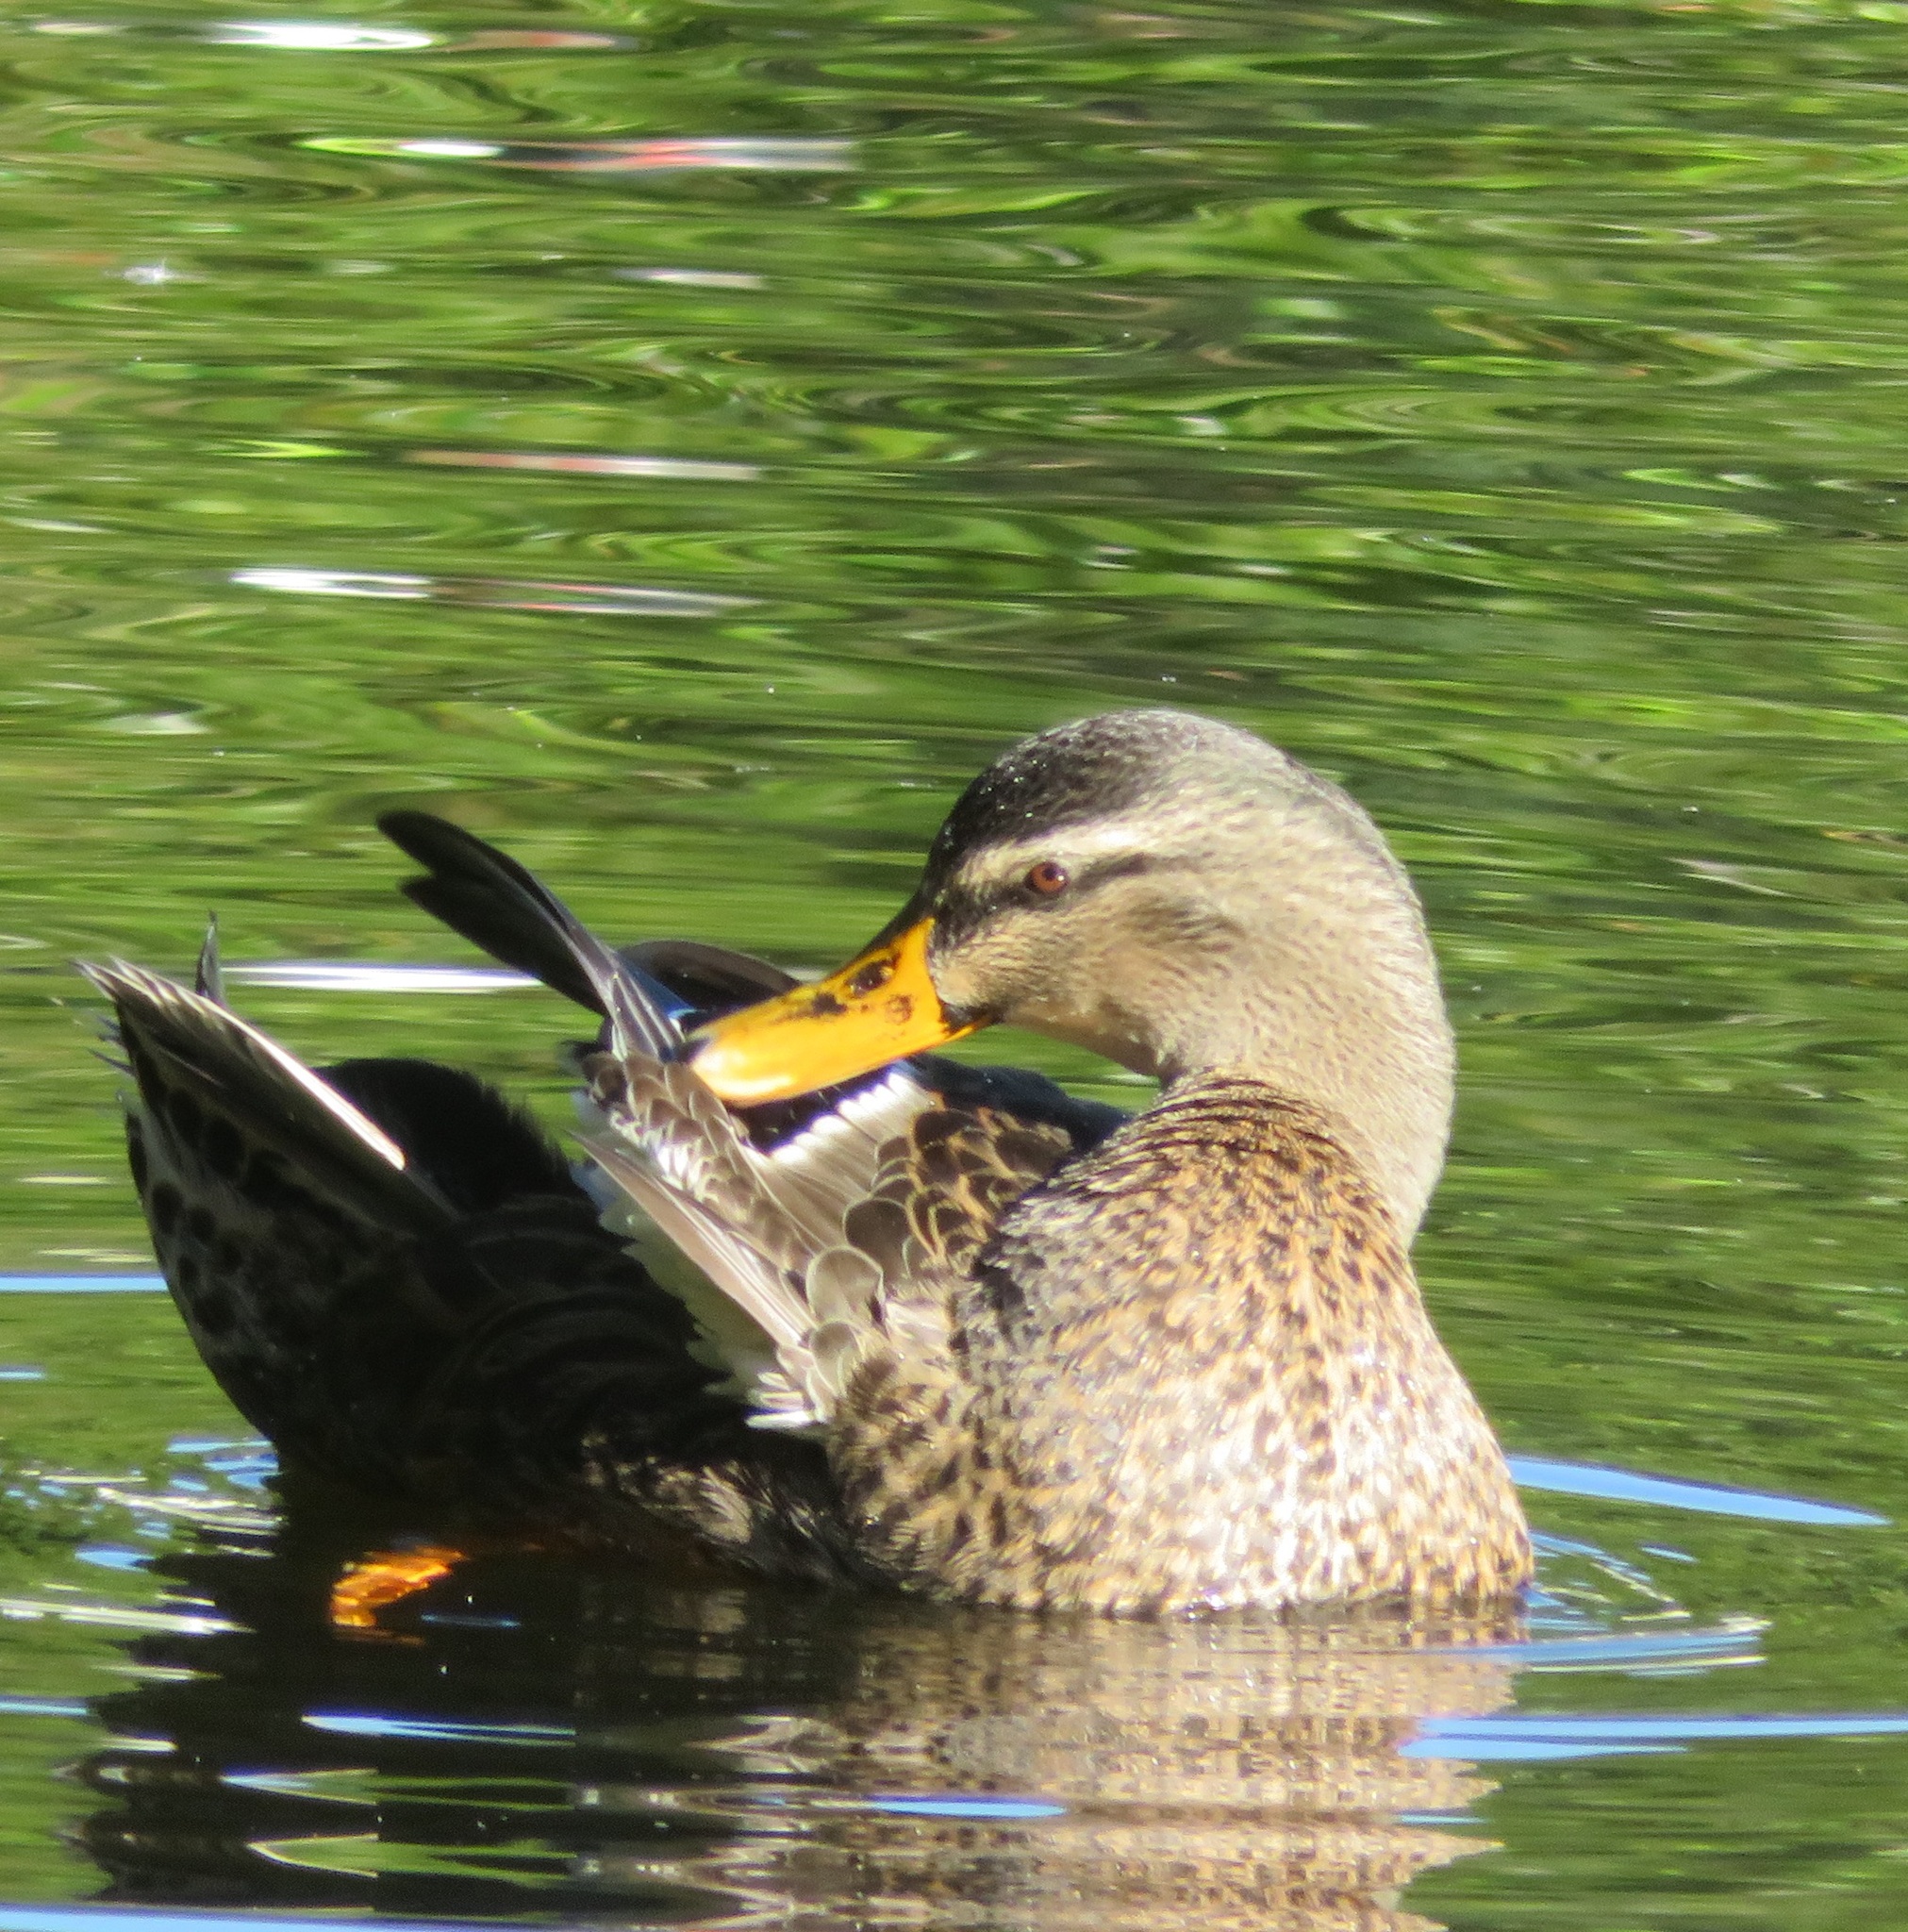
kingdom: Animalia
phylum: Chordata
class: Aves
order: Anseriformes
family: Anatidae
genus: Anas
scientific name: Anas
